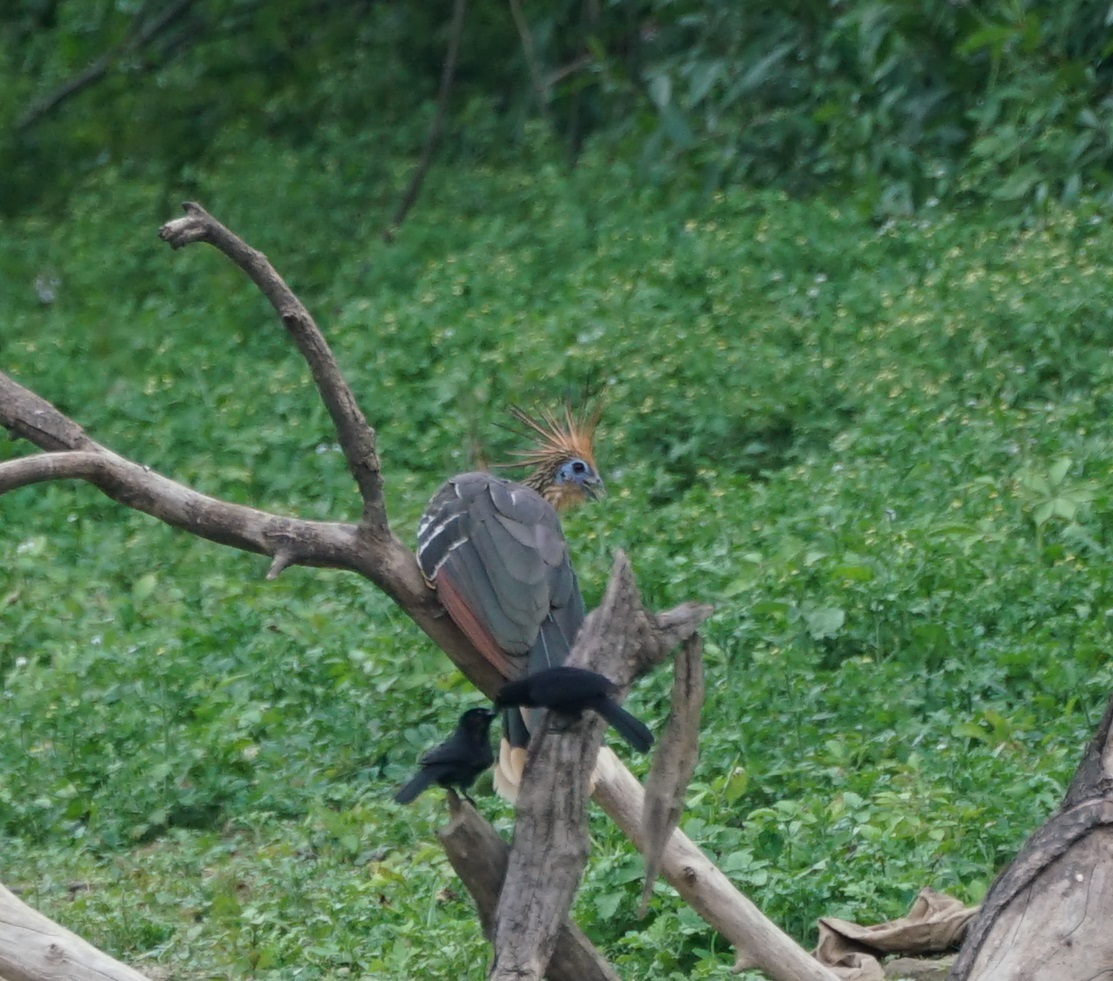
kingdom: Animalia
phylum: Chordata
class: Aves
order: Opisthocomiformes
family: Opisthocomidae
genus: Opisthocomus
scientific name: Opisthocomus hoazin
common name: Hoatzin
